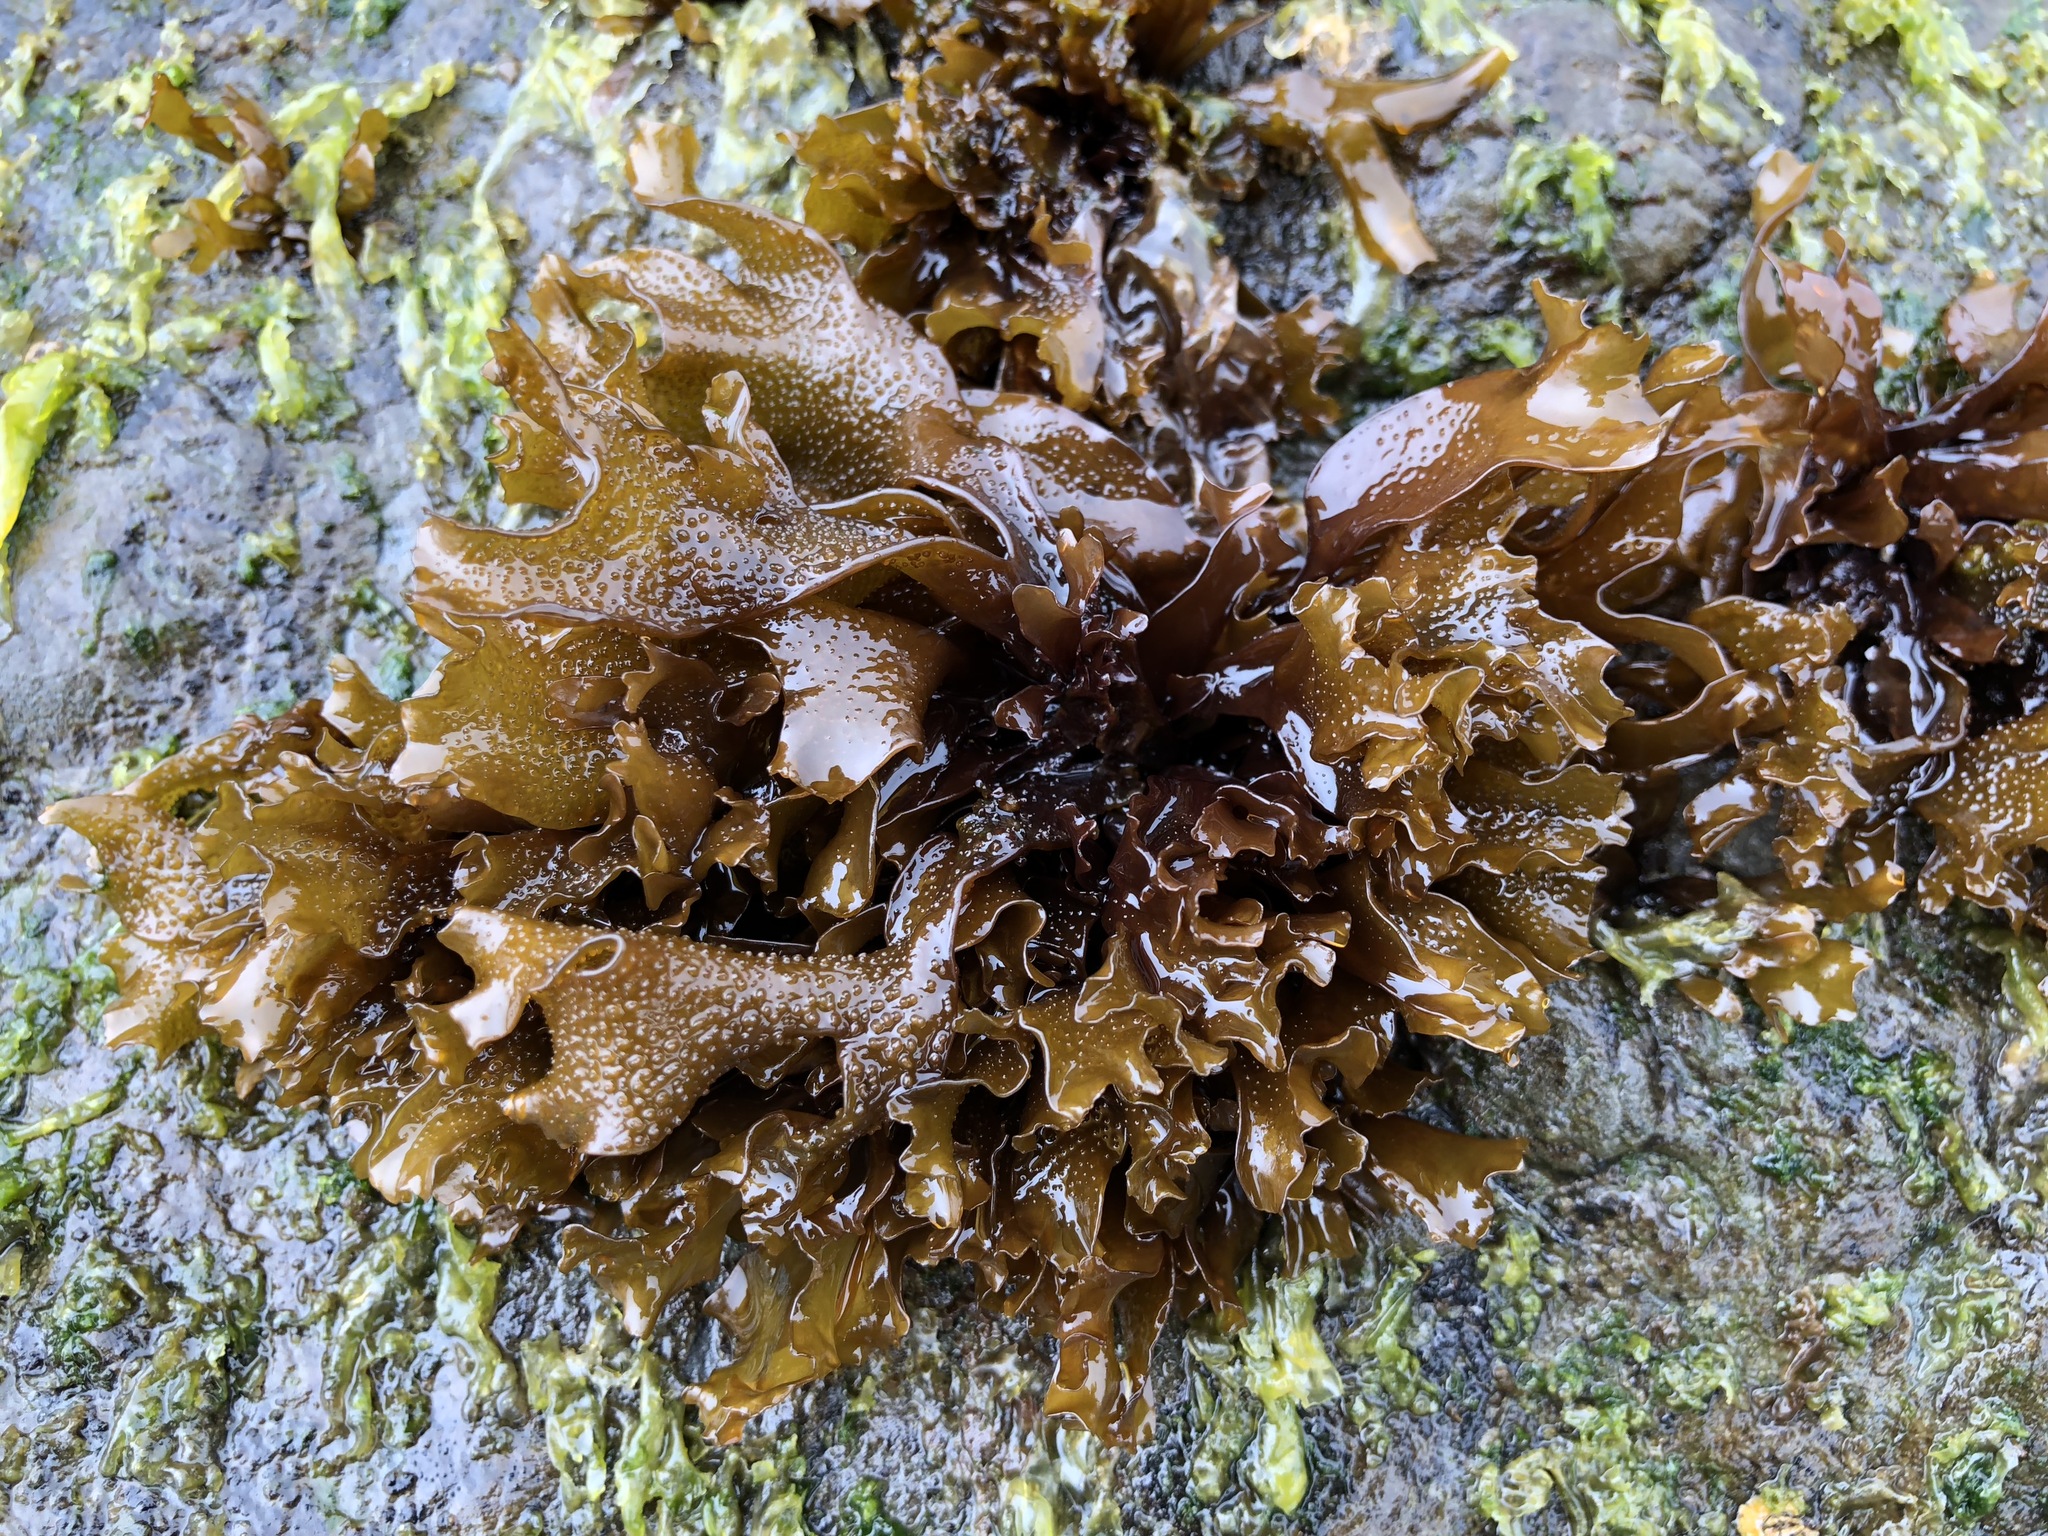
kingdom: Plantae
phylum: Rhodophyta
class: Florideophyceae
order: Gigartinales
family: Phyllophoraceae
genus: Mastocarpus
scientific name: Mastocarpus papillatus
